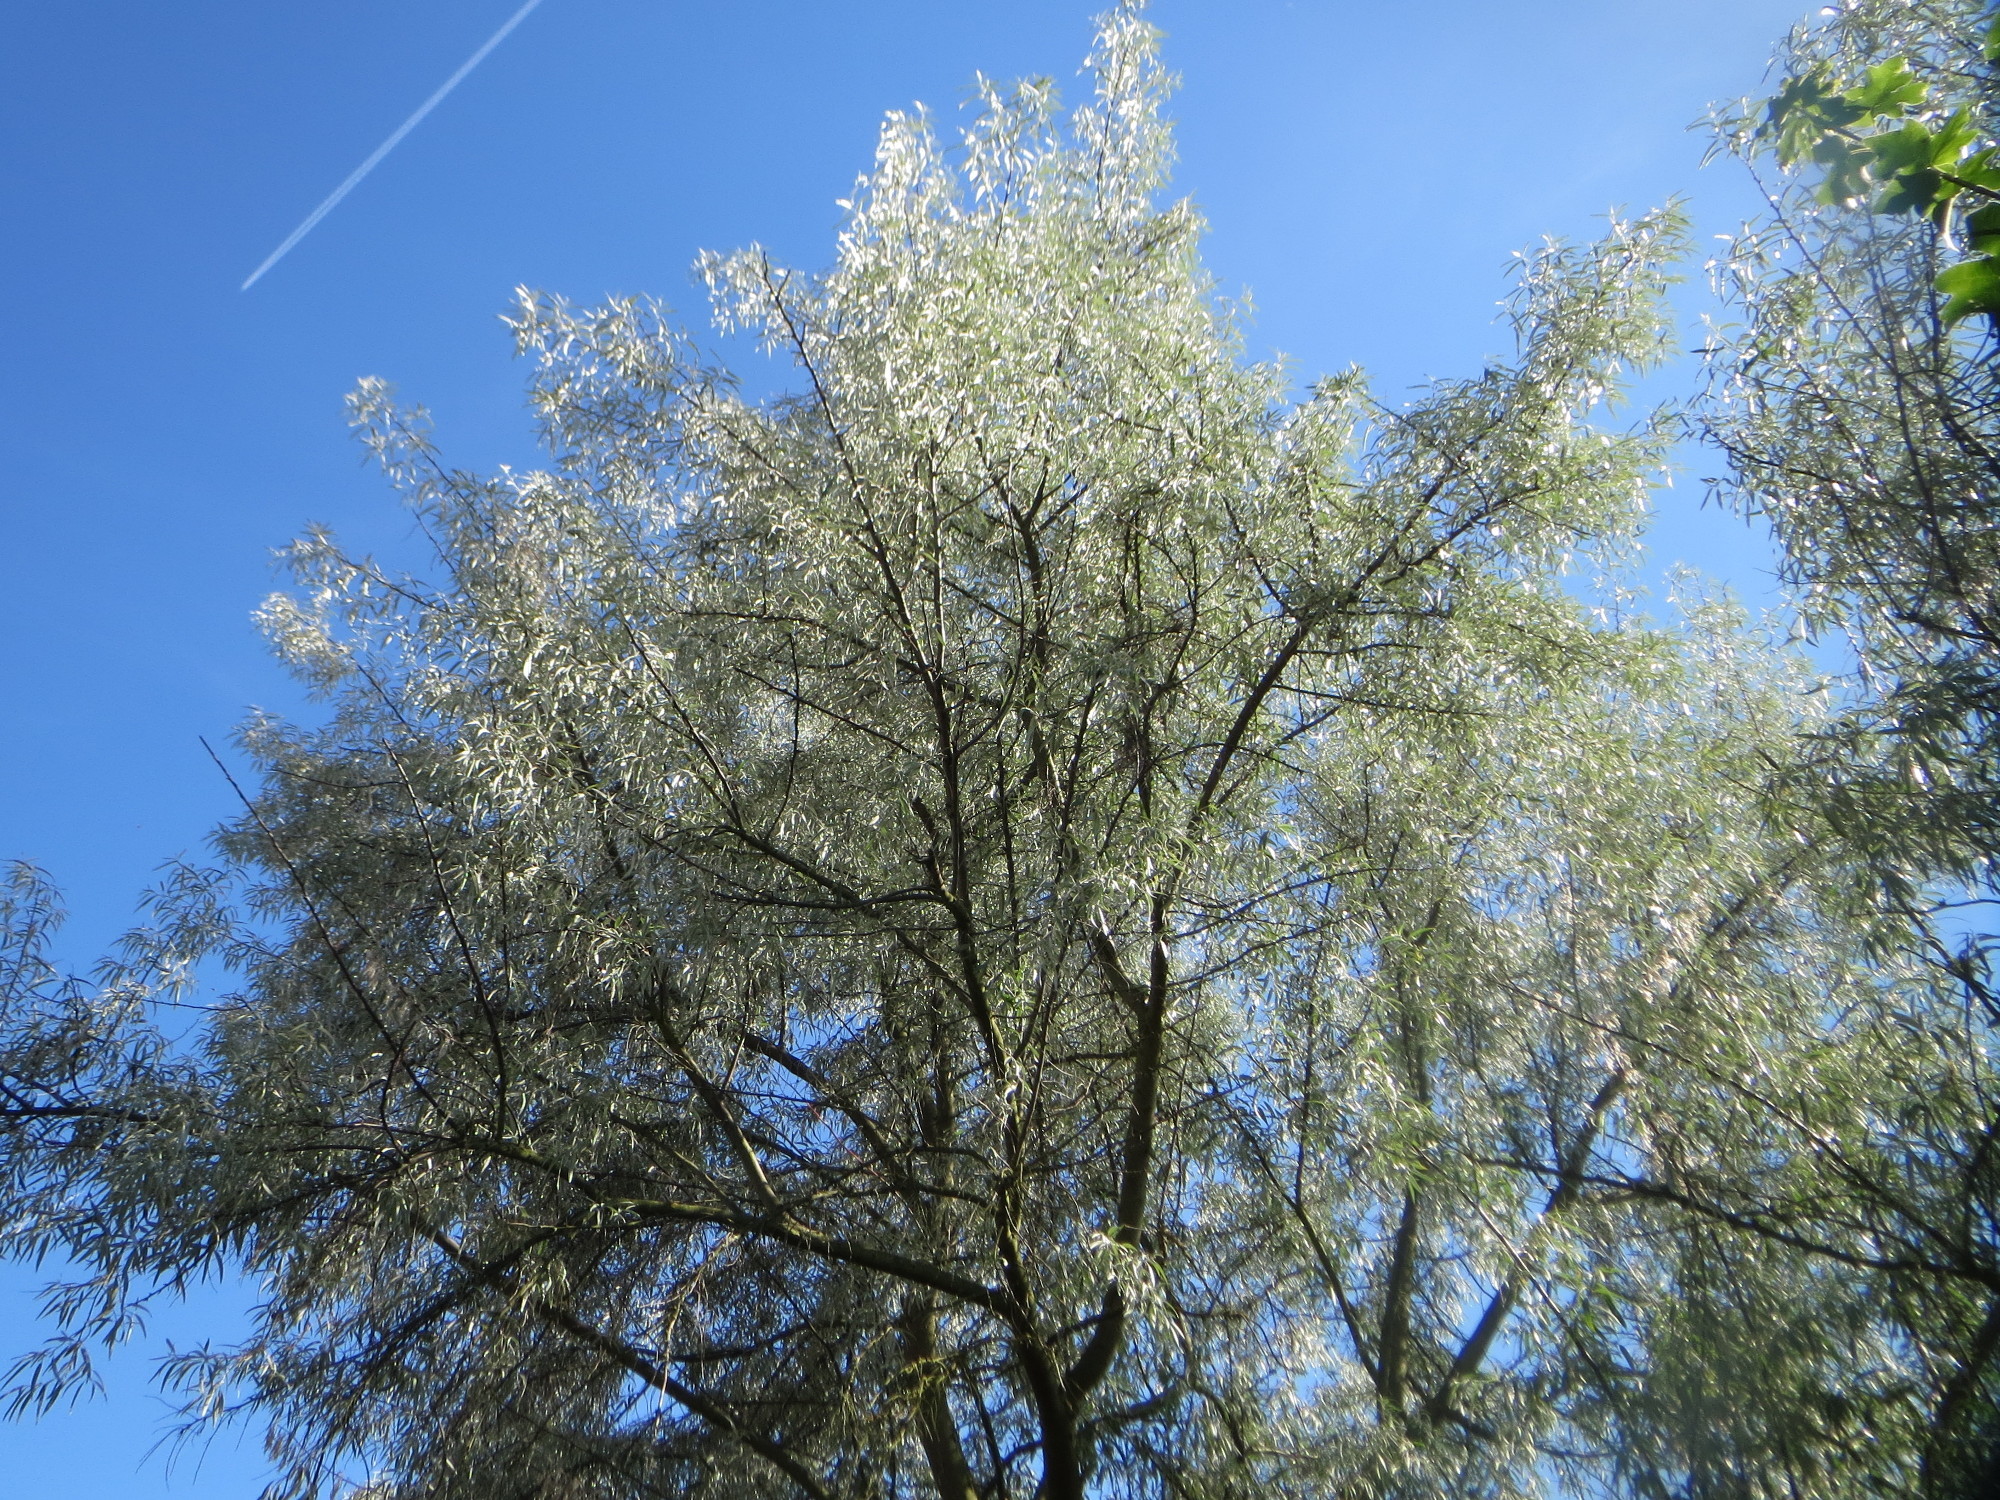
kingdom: Plantae
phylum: Tracheophyta
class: Magnoliopsida
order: Rosales
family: Elaeagnaceae
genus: Elaeagnus
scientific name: Elaeagnus angustifolia
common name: Russian olive
